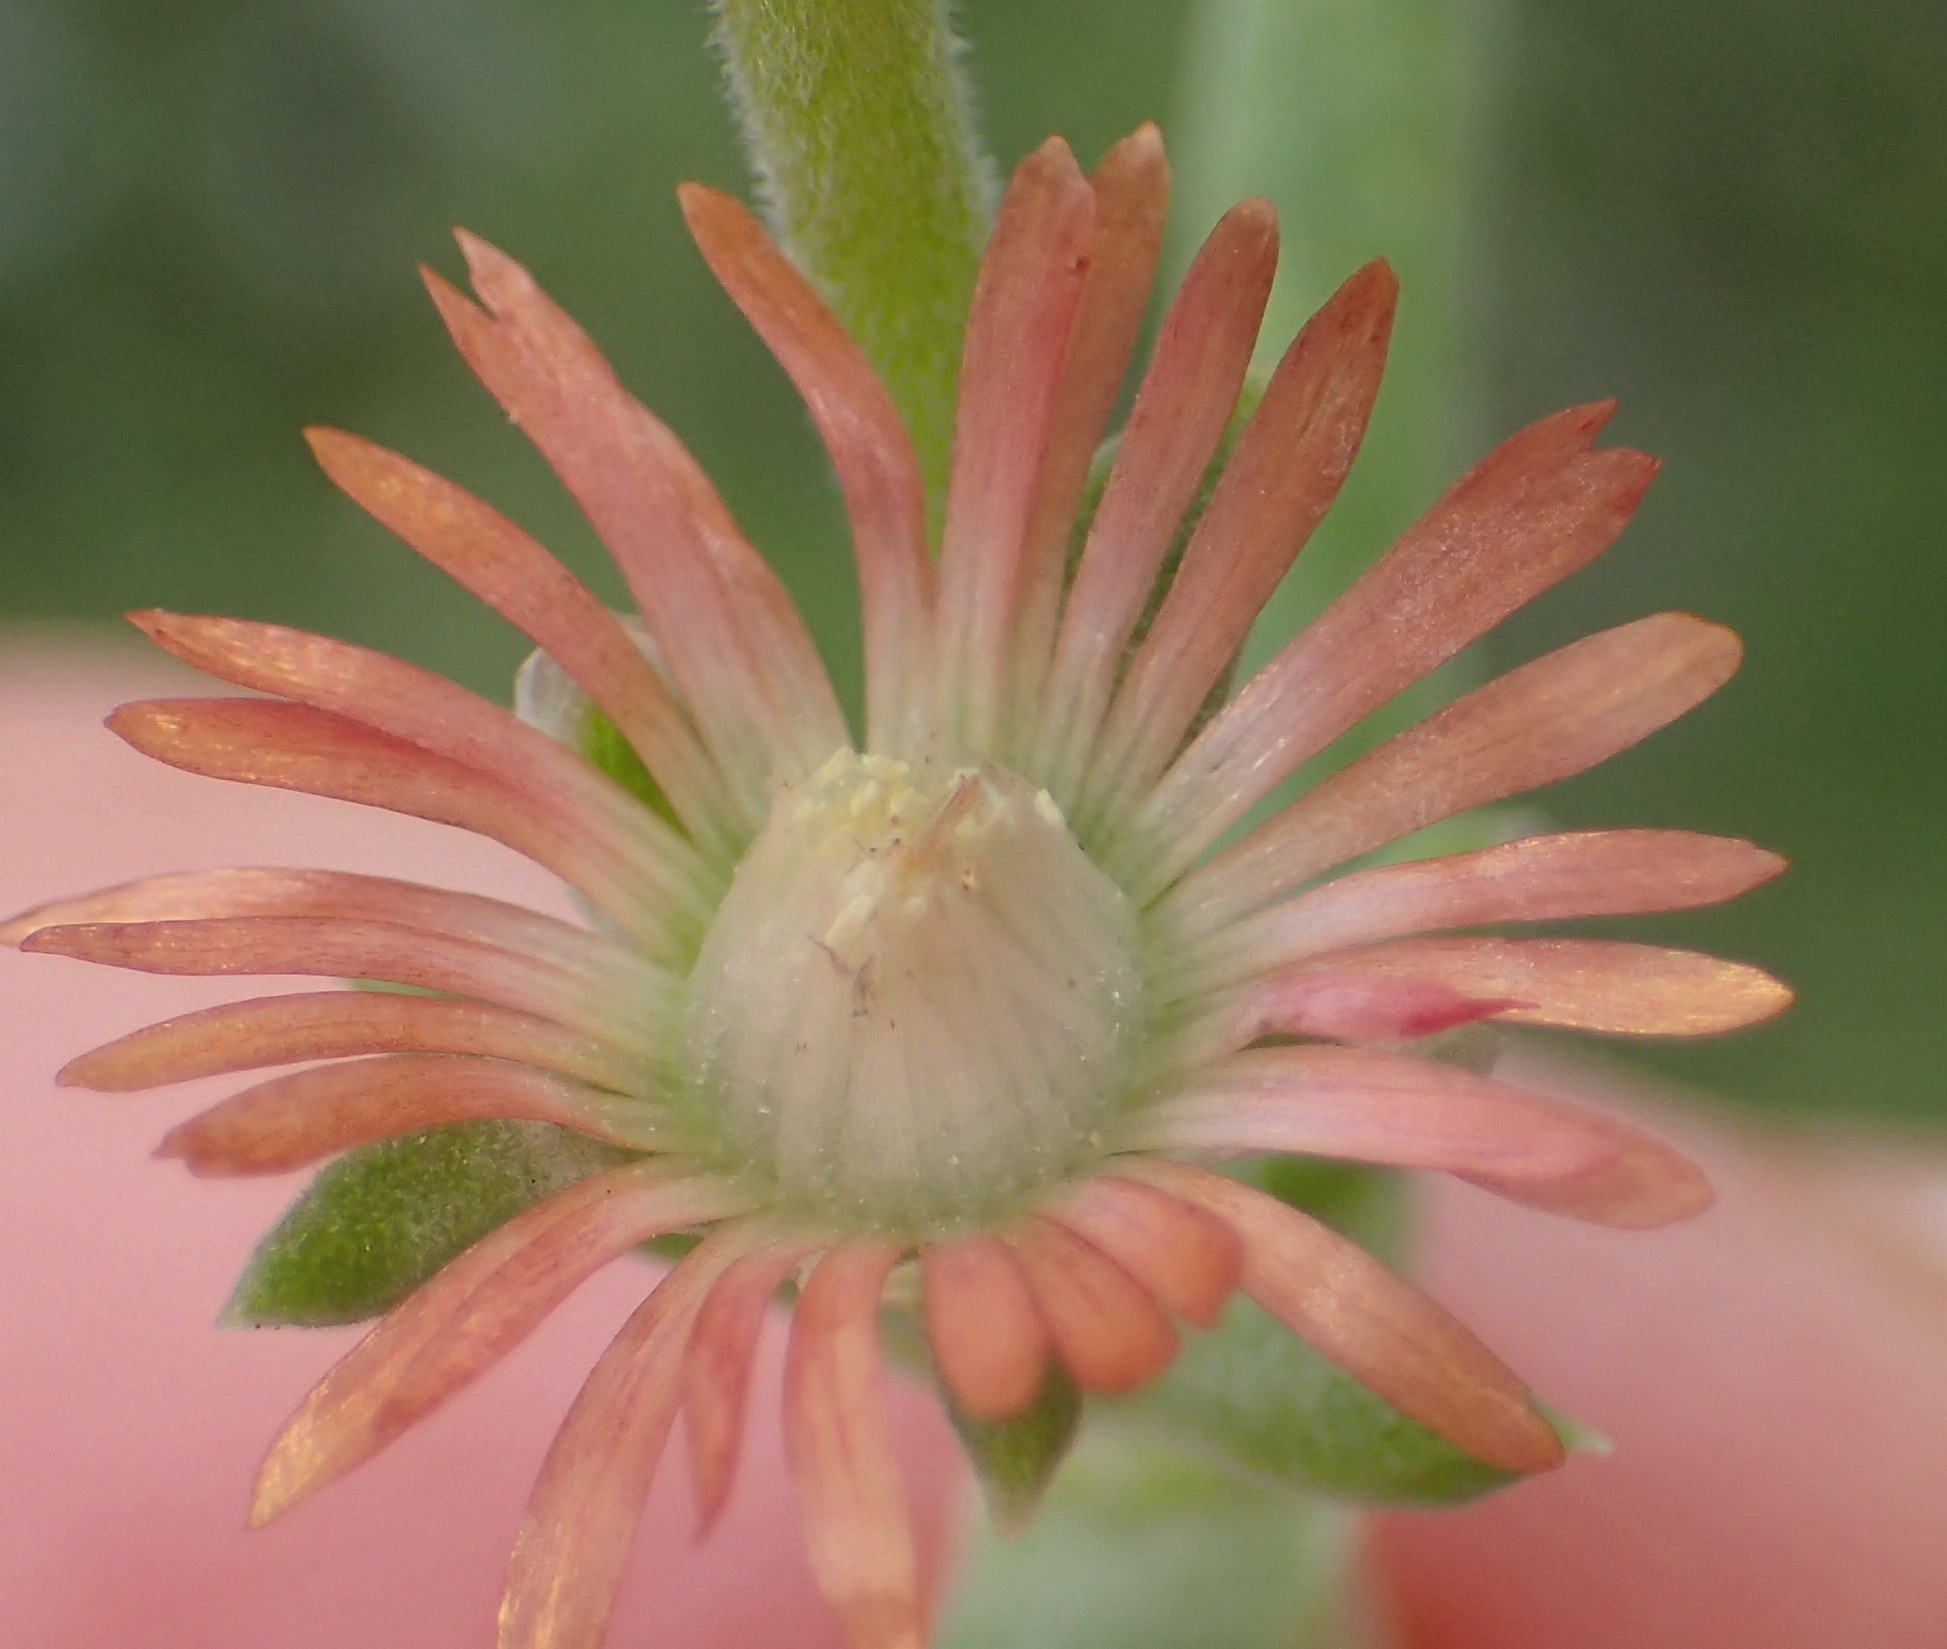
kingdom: Plantae
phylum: Tracheophyta
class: Magnoliopsida
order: Caryophyllales
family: Aizoaceae
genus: Delosperma
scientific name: Delosperma multiflorum
